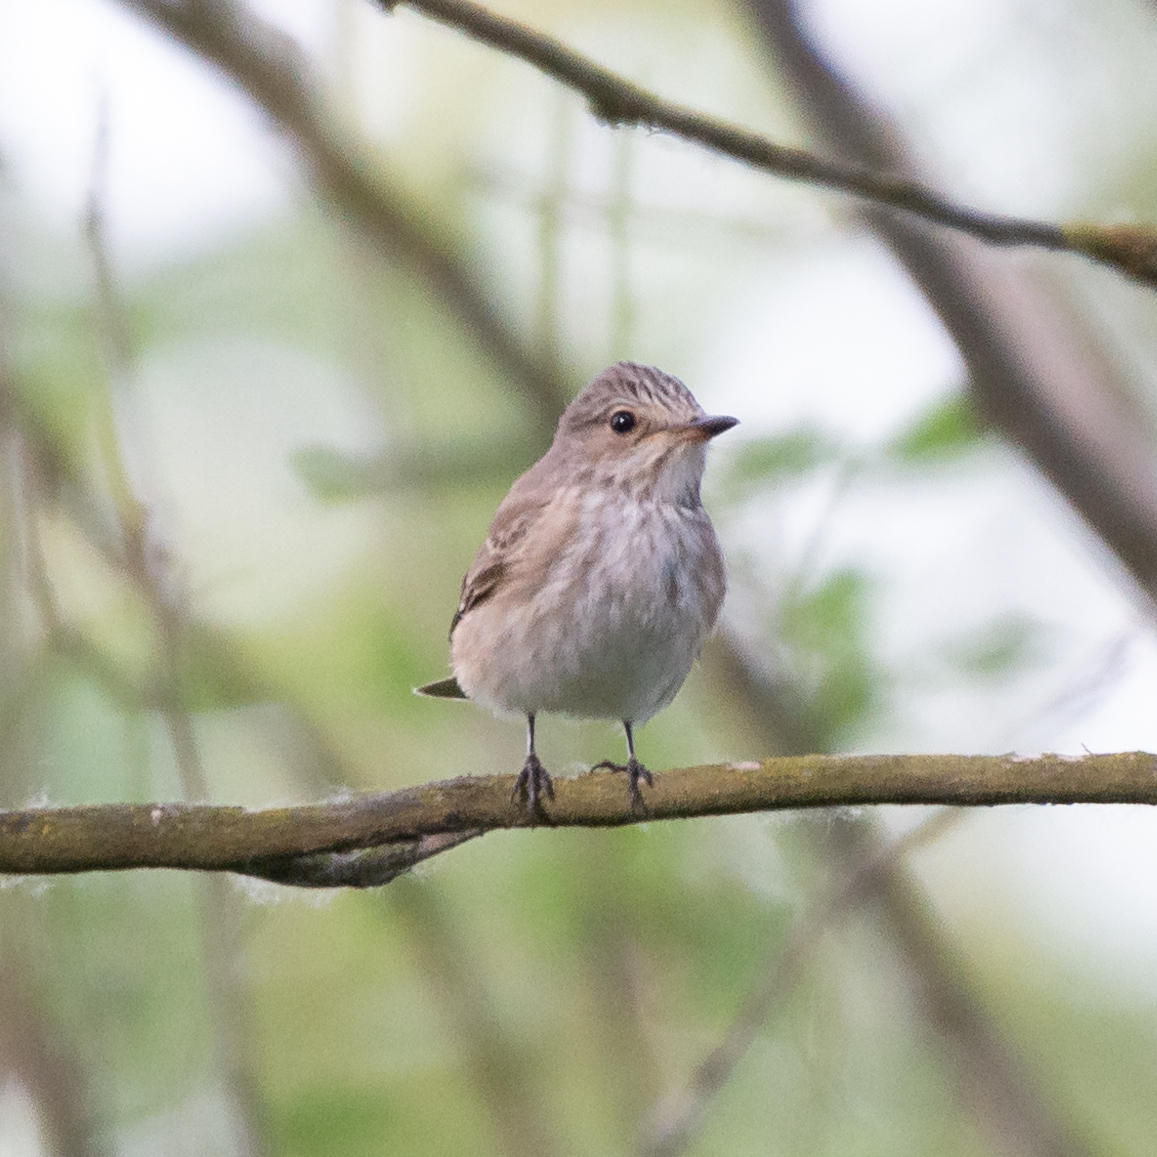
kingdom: Animalia
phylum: Chordata
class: Aves
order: Passeriformes
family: Muscicapidae
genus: Muscicapa
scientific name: Muscicapa striata
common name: Spotted flycatcher
